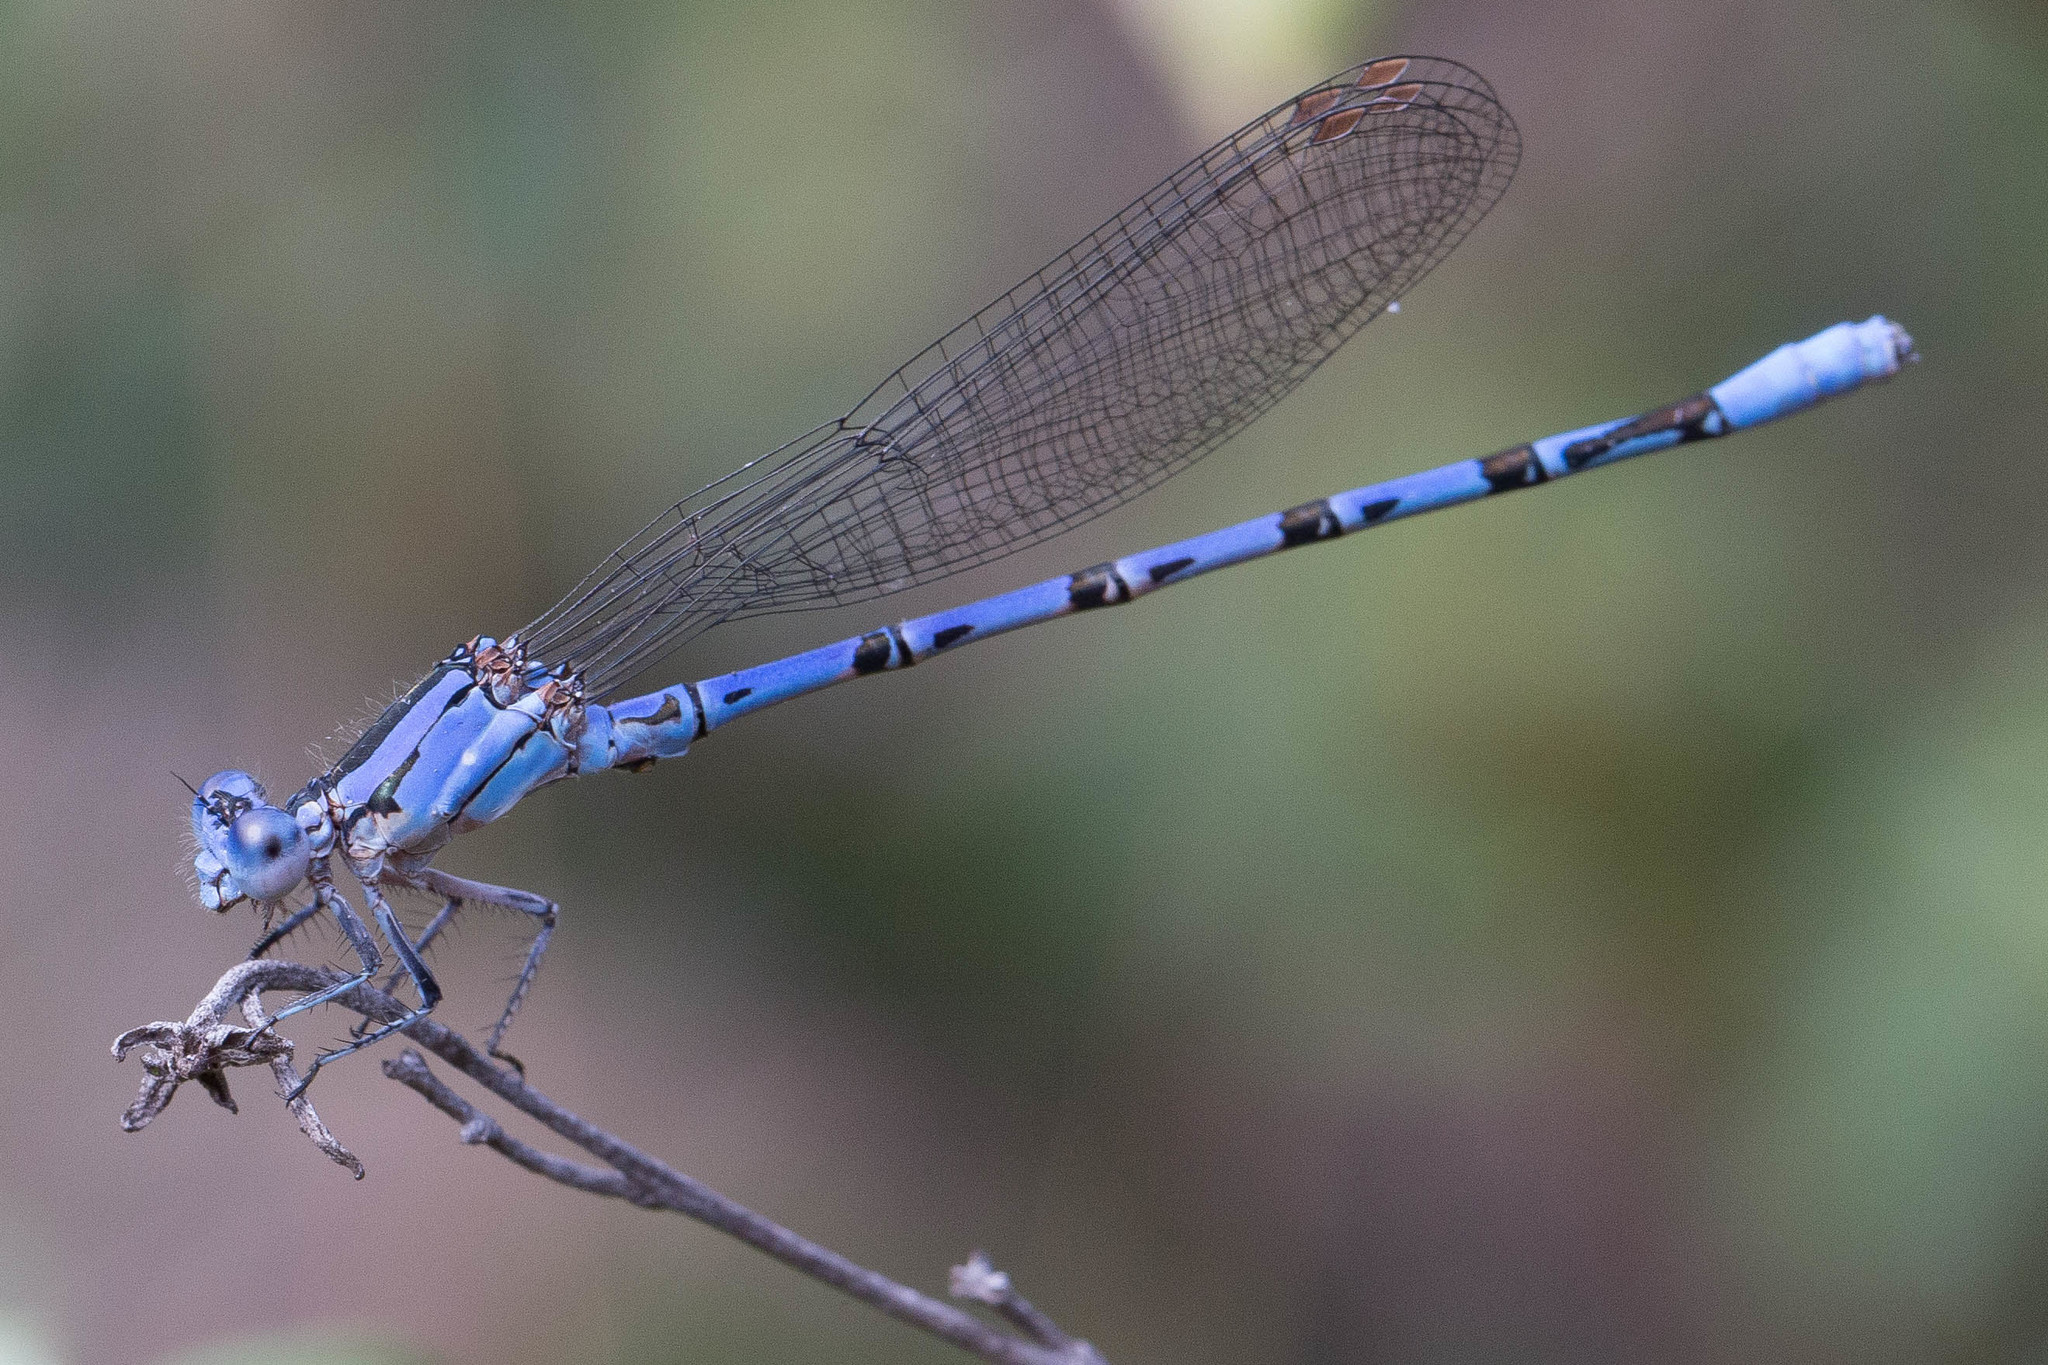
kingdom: Animalia
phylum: Arthropoda
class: Insecta
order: Odonata
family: Coenagrionidae
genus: Argia
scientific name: Argia vivida
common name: Vivid dancer
